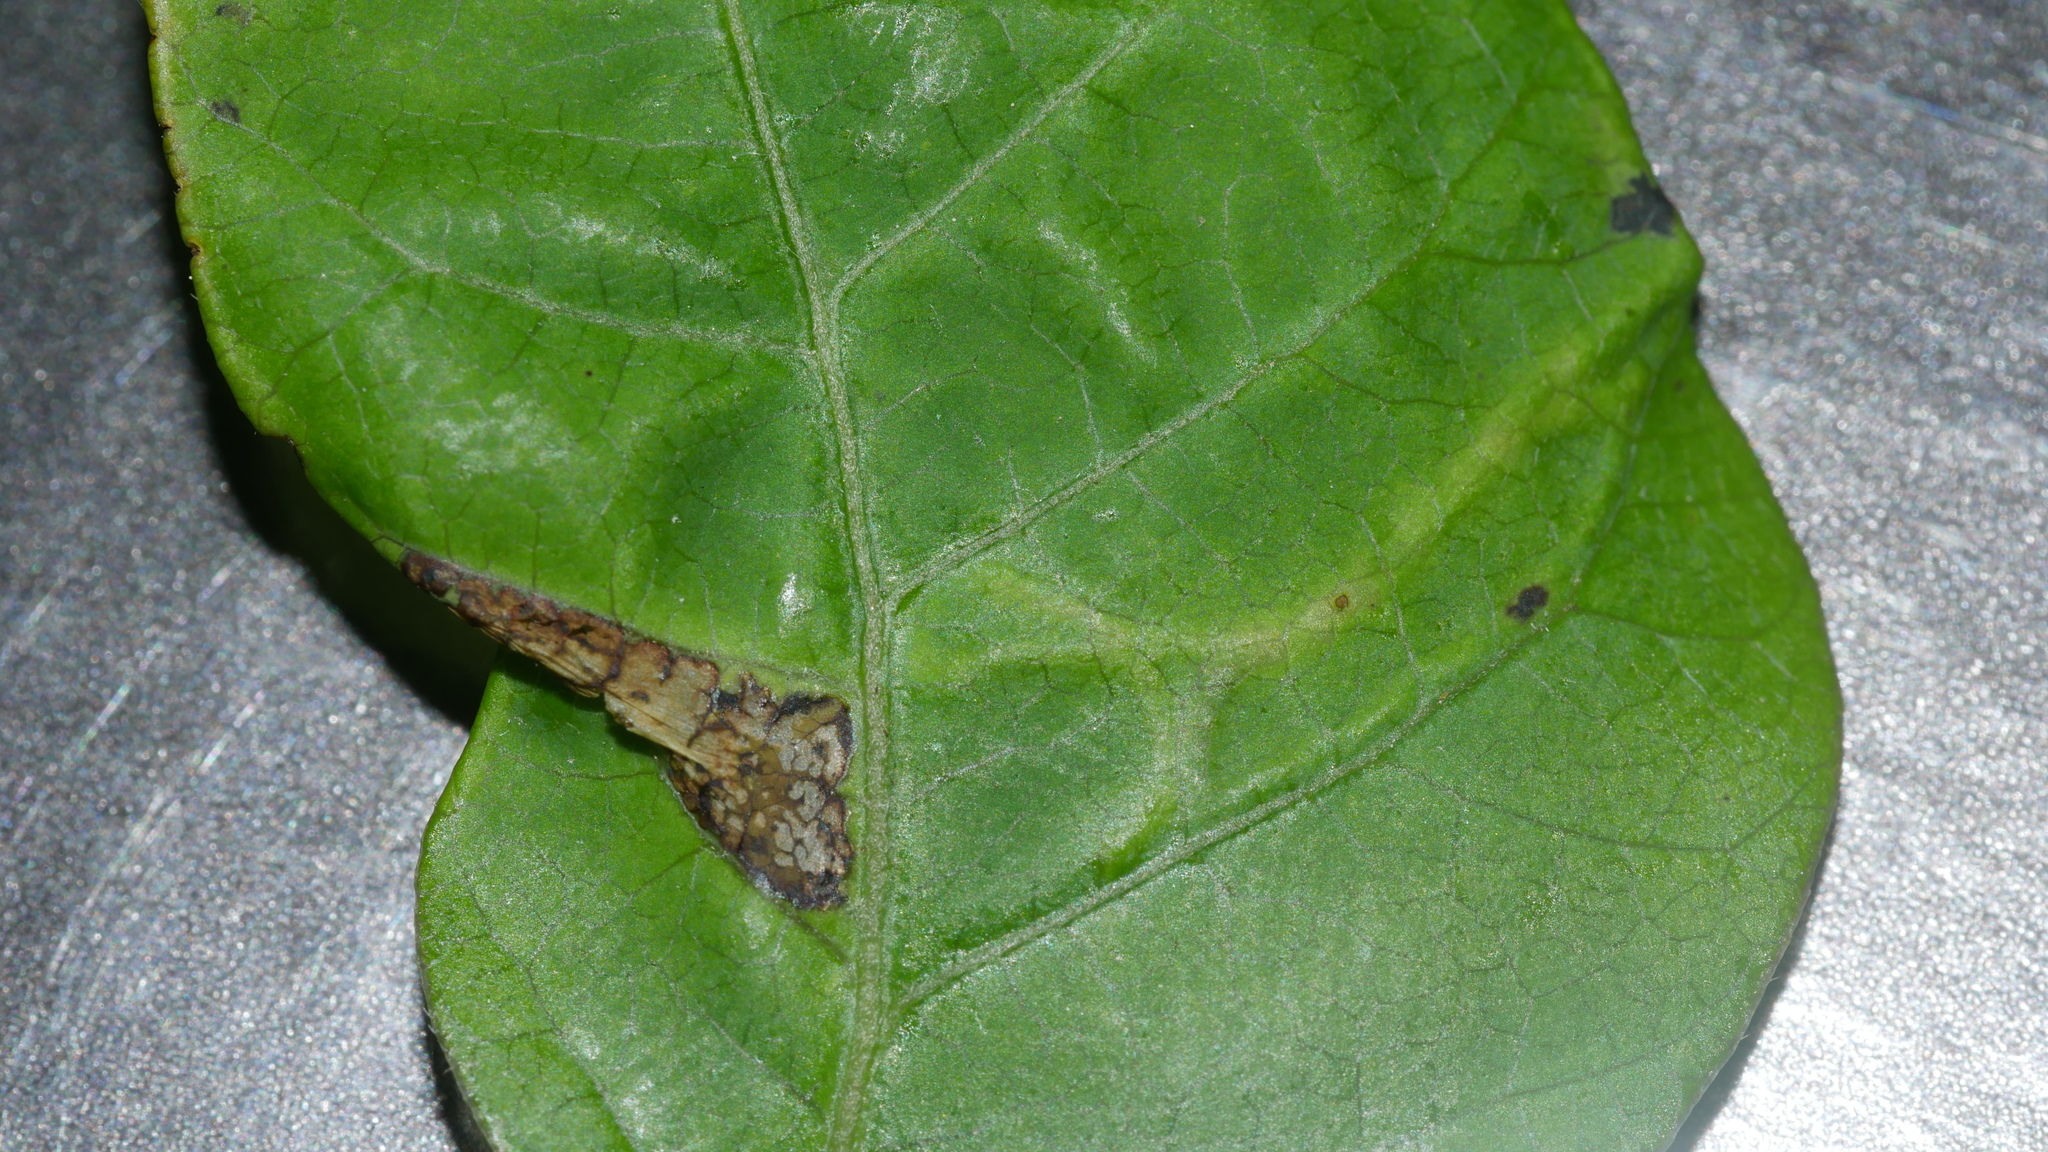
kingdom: Animalia
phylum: Arthropoda
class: Insecta
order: Lepidoptera
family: Gracillariidae
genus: Caloptilia
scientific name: Caloptilia rhoifoliella
